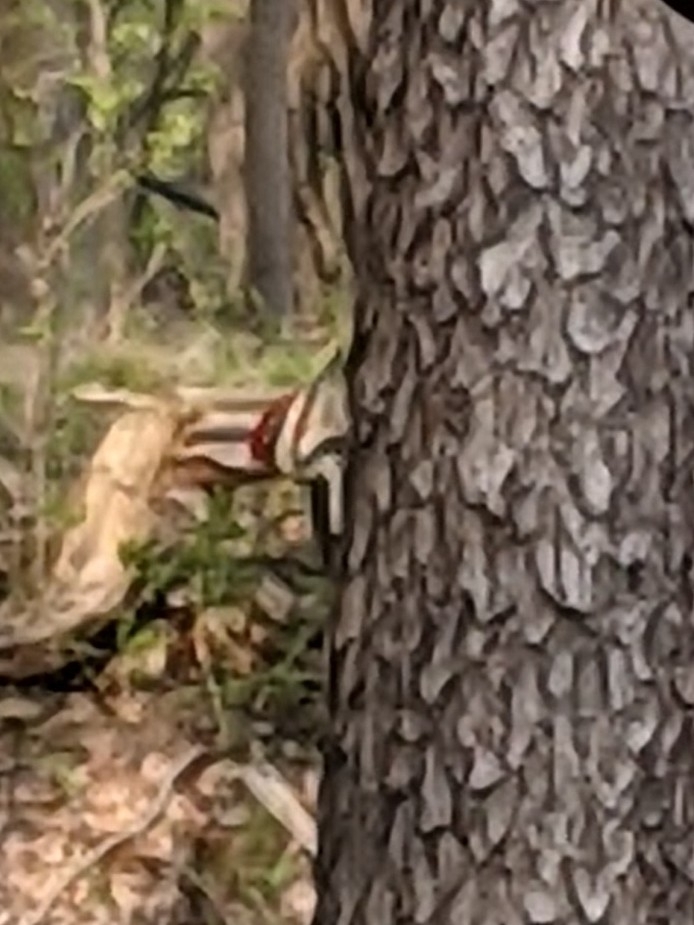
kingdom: Animalia
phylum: Chordata
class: Aves
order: Piciformes
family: Picidae
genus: Dryocopus
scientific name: Dryocopus pileatus
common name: Pileated woodpecker
